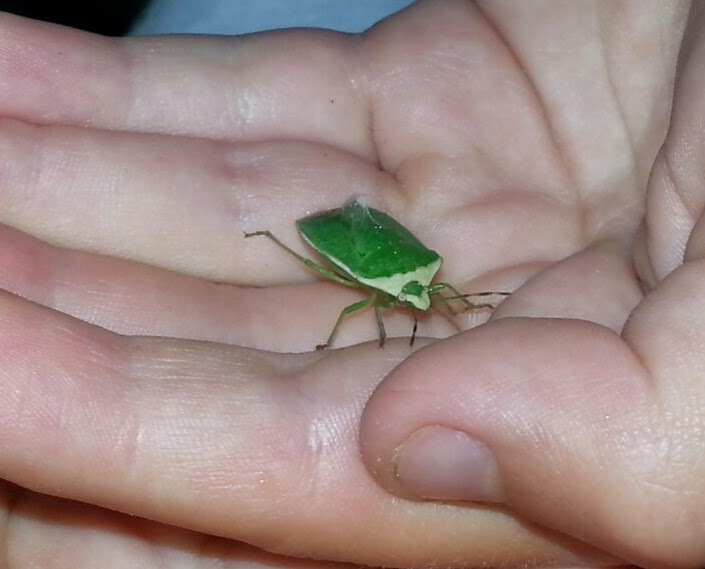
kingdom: Animalia
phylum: Arthropoda
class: Insecta
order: Hemiptera
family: Pentatomidae
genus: Nezara
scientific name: Nezara viridula
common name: Southern green stink bug
